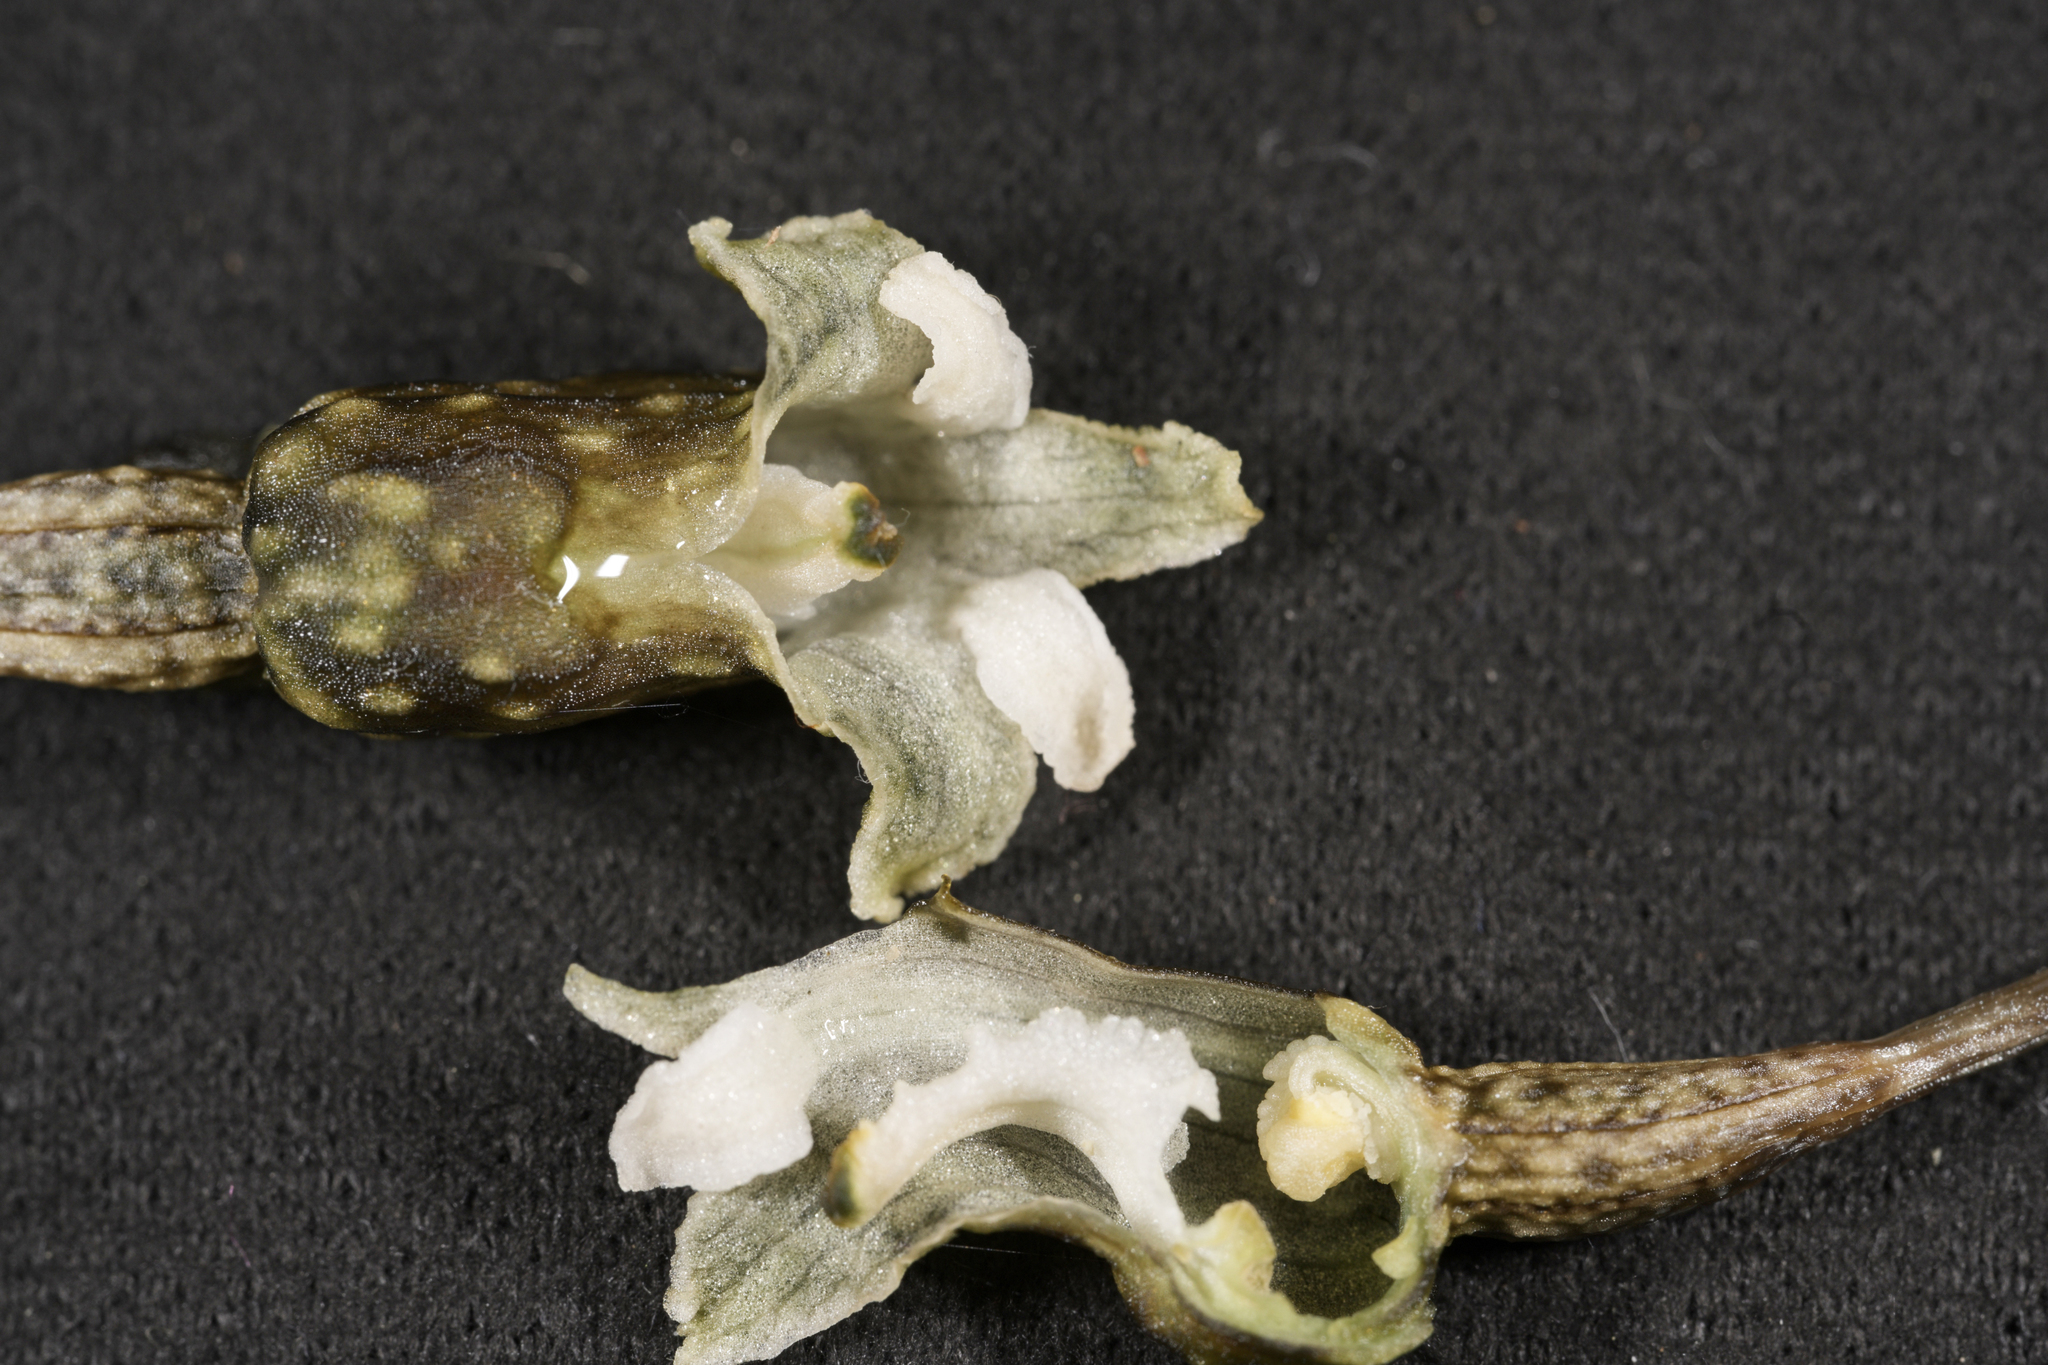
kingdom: Plantae
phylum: Tracheophyta
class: Liliopsida
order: Asparagales
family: Orchidaceae
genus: Gastrodia
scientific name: Gastrodia cunninghamii
